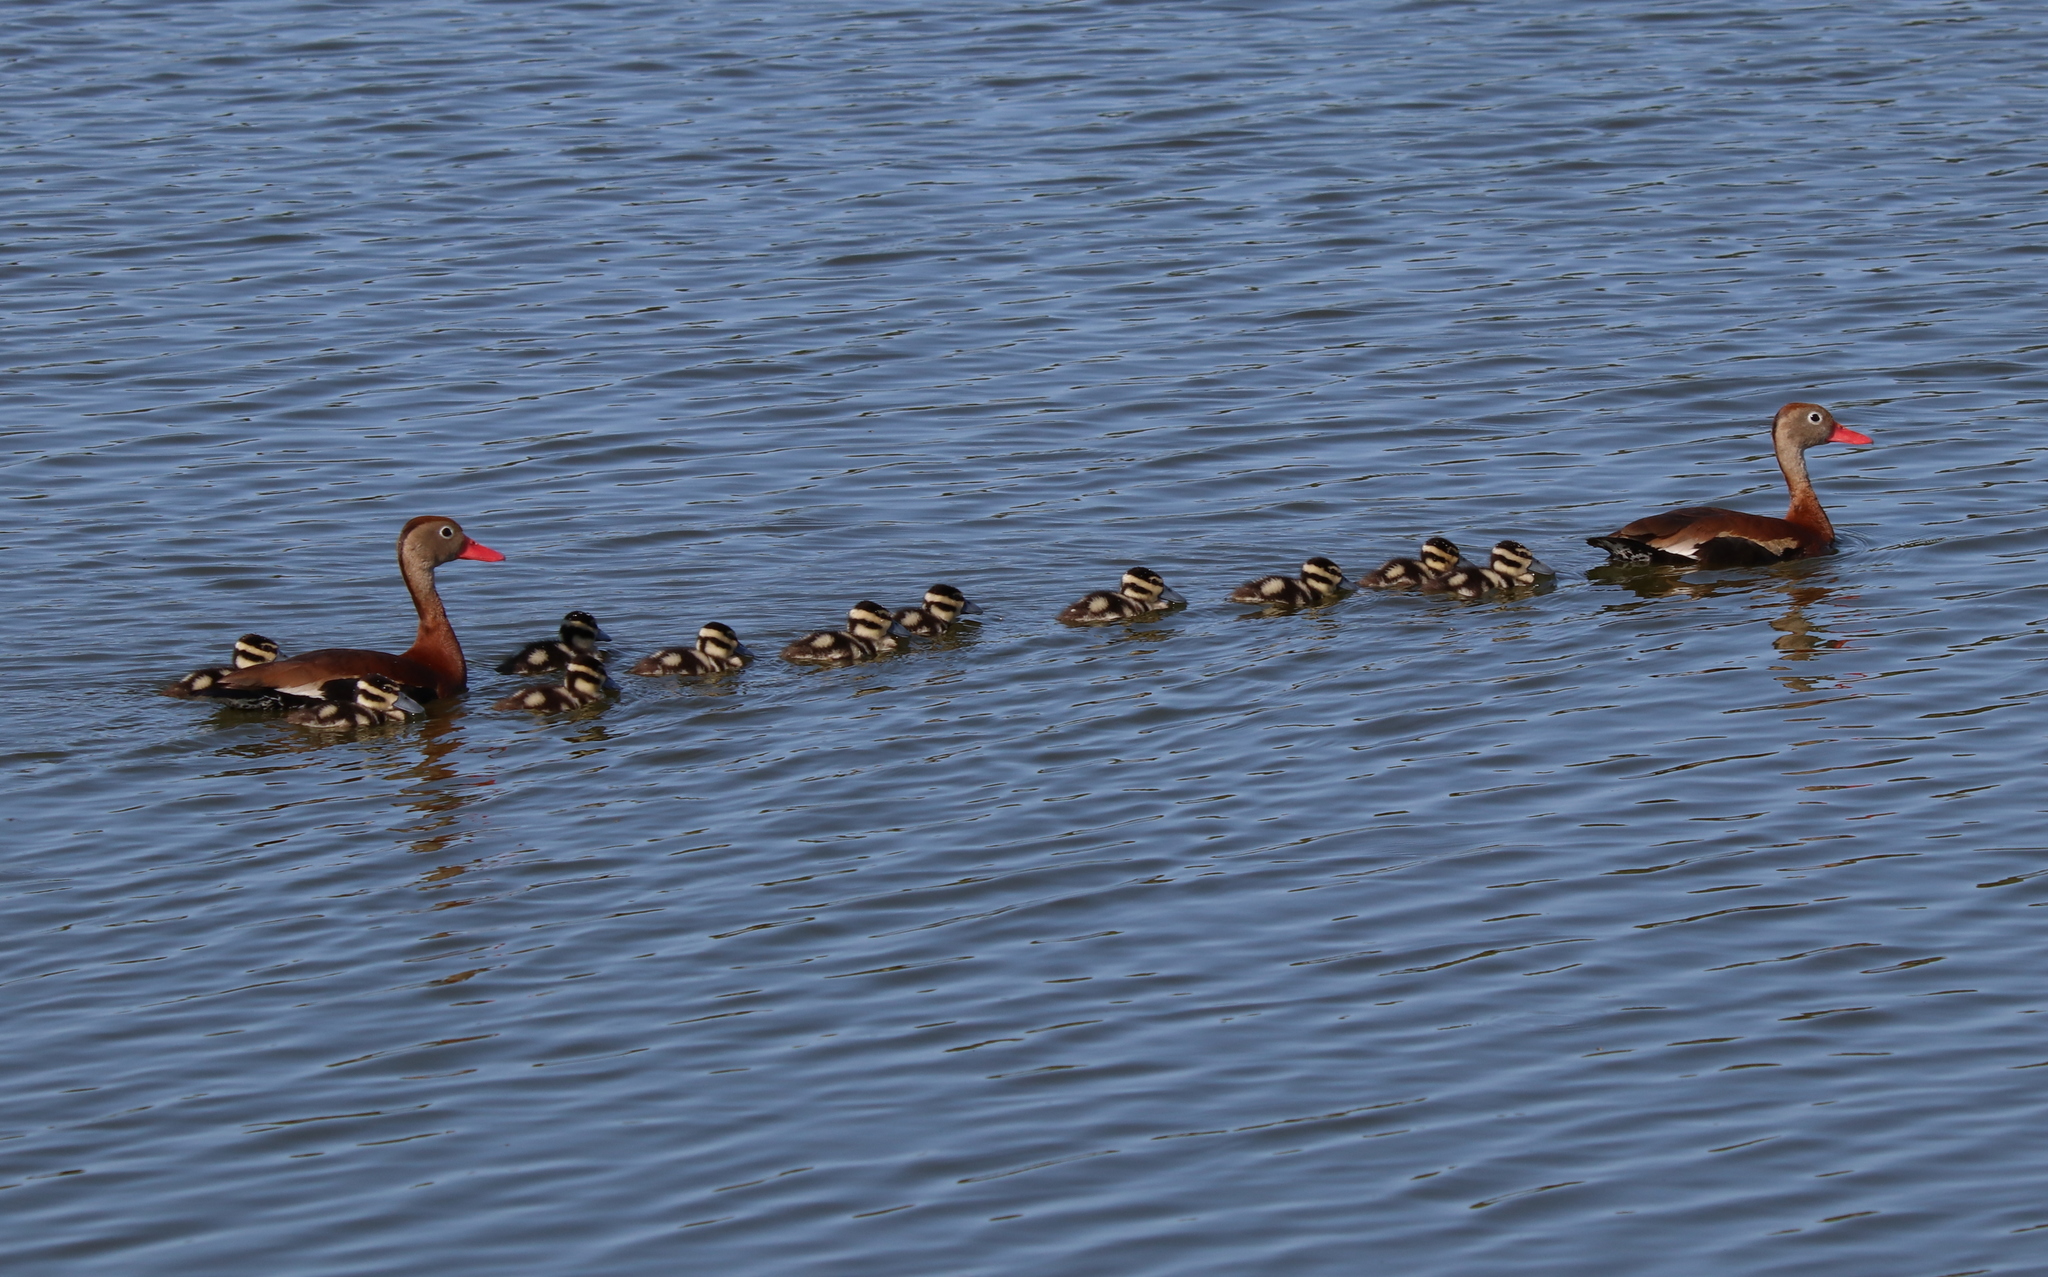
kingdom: Animalia
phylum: Chordata
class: Aves
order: Anseriformes
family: Anatidae
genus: Dendrocygna
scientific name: Dendrocygna autumnalis
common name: Black-bellied whistling duck
